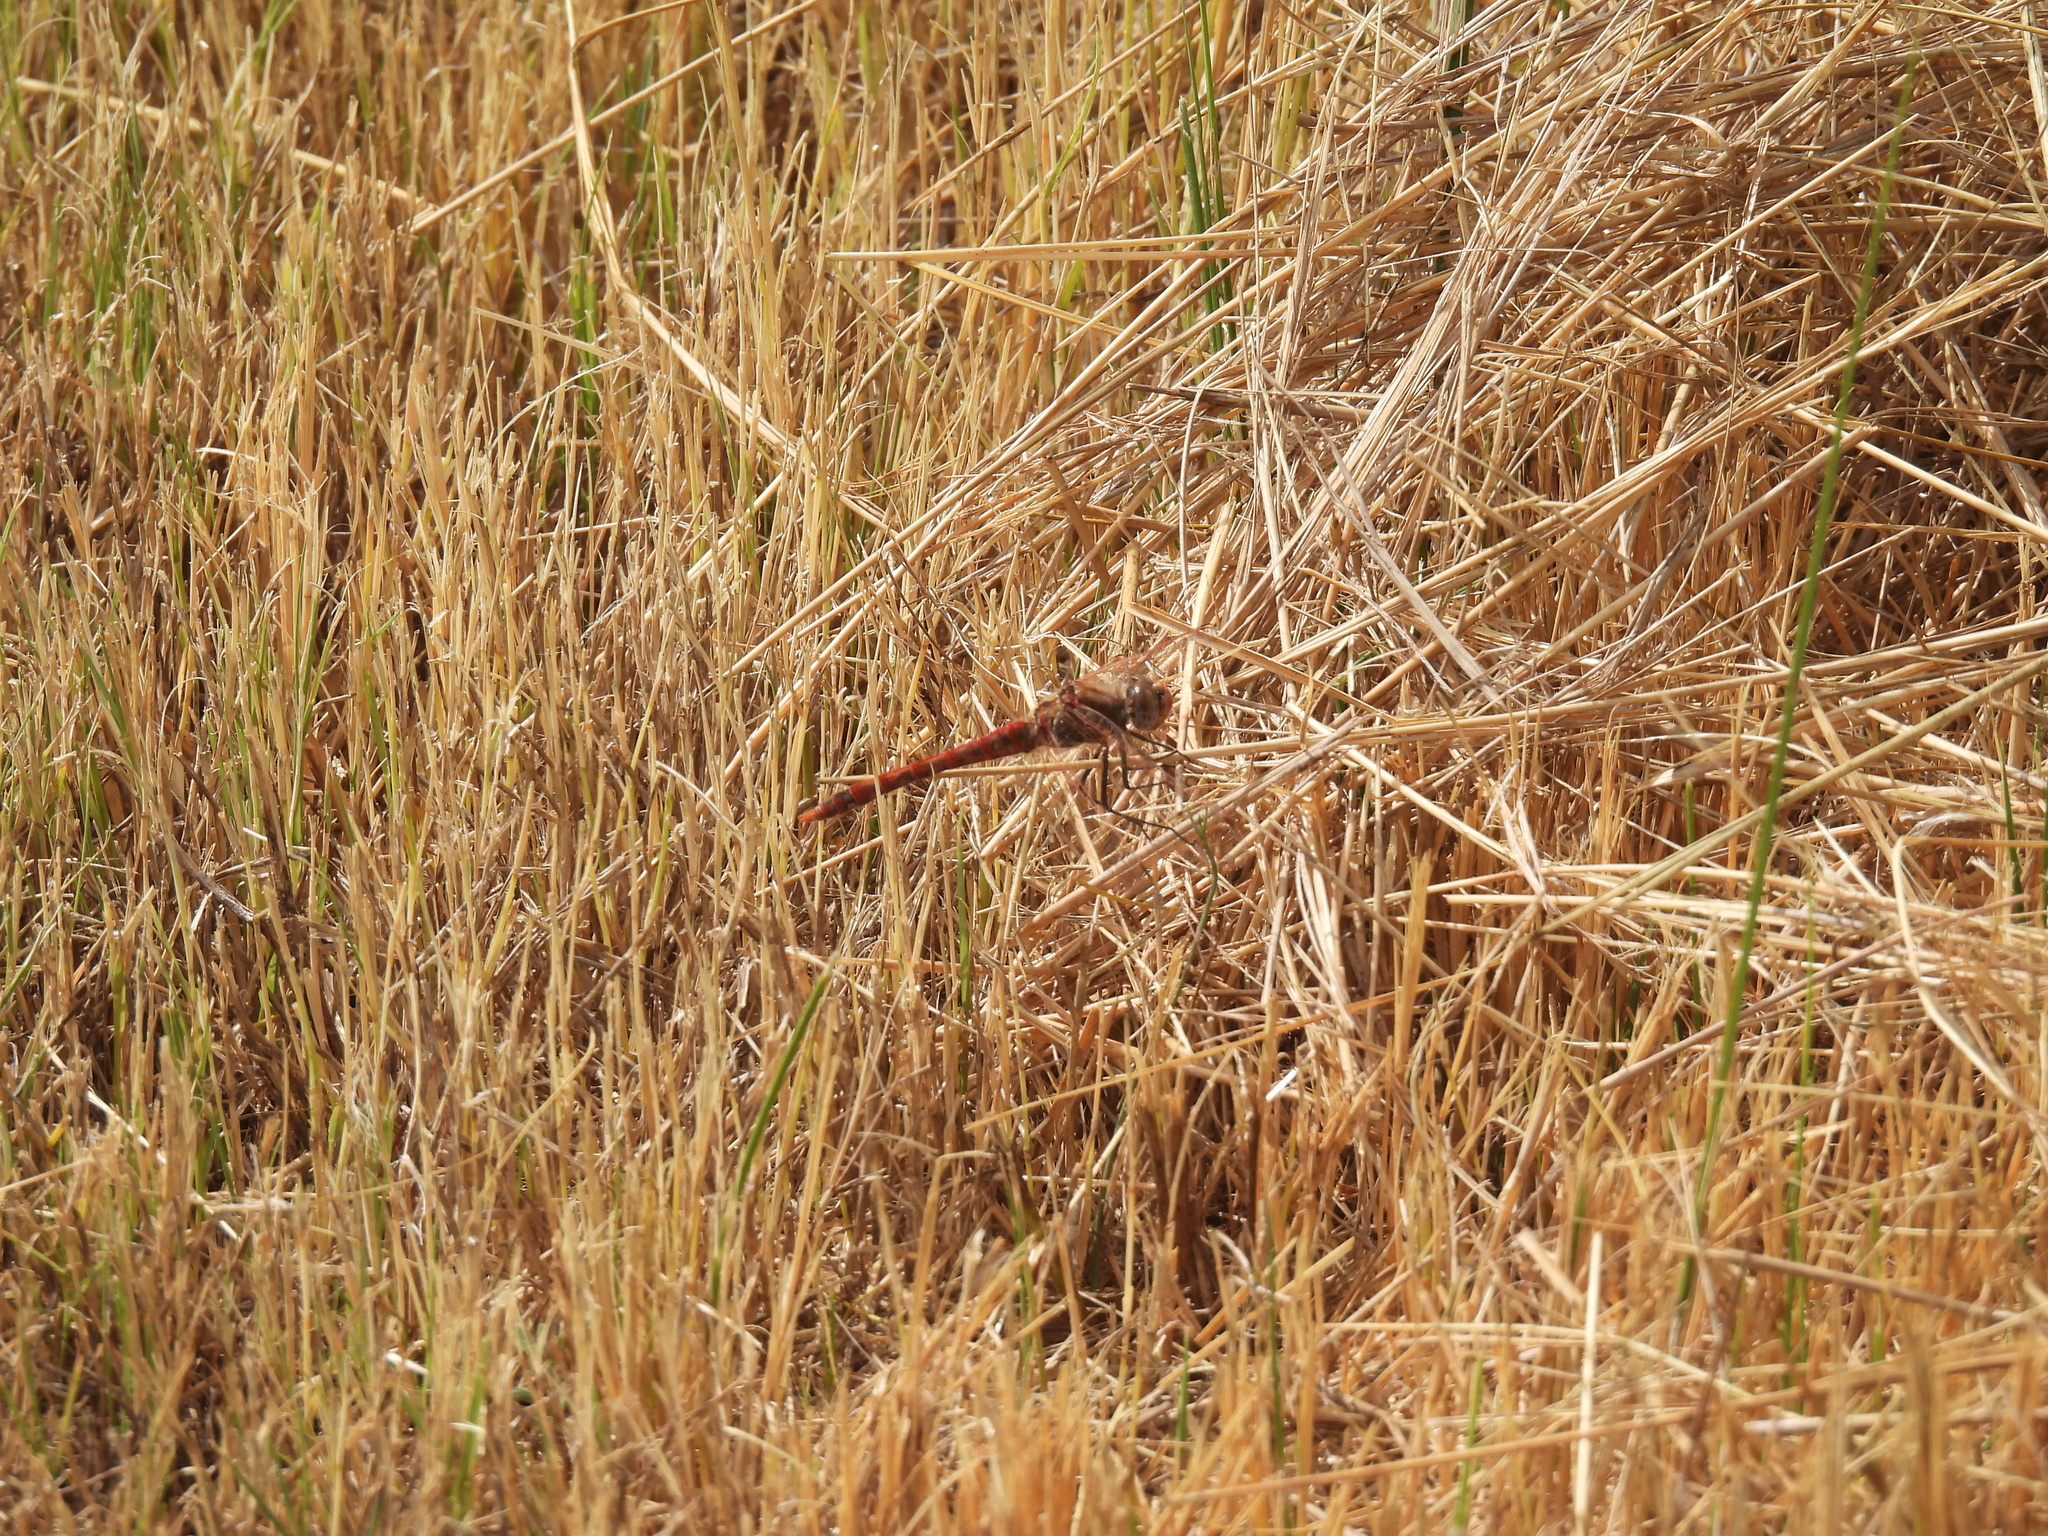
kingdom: Animalia
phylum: Arthropoda
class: Insecta
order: Odonata
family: Libellulidae
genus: Sympetrum
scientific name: Sympetrum corruptum
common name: Variegated meadowhawk
